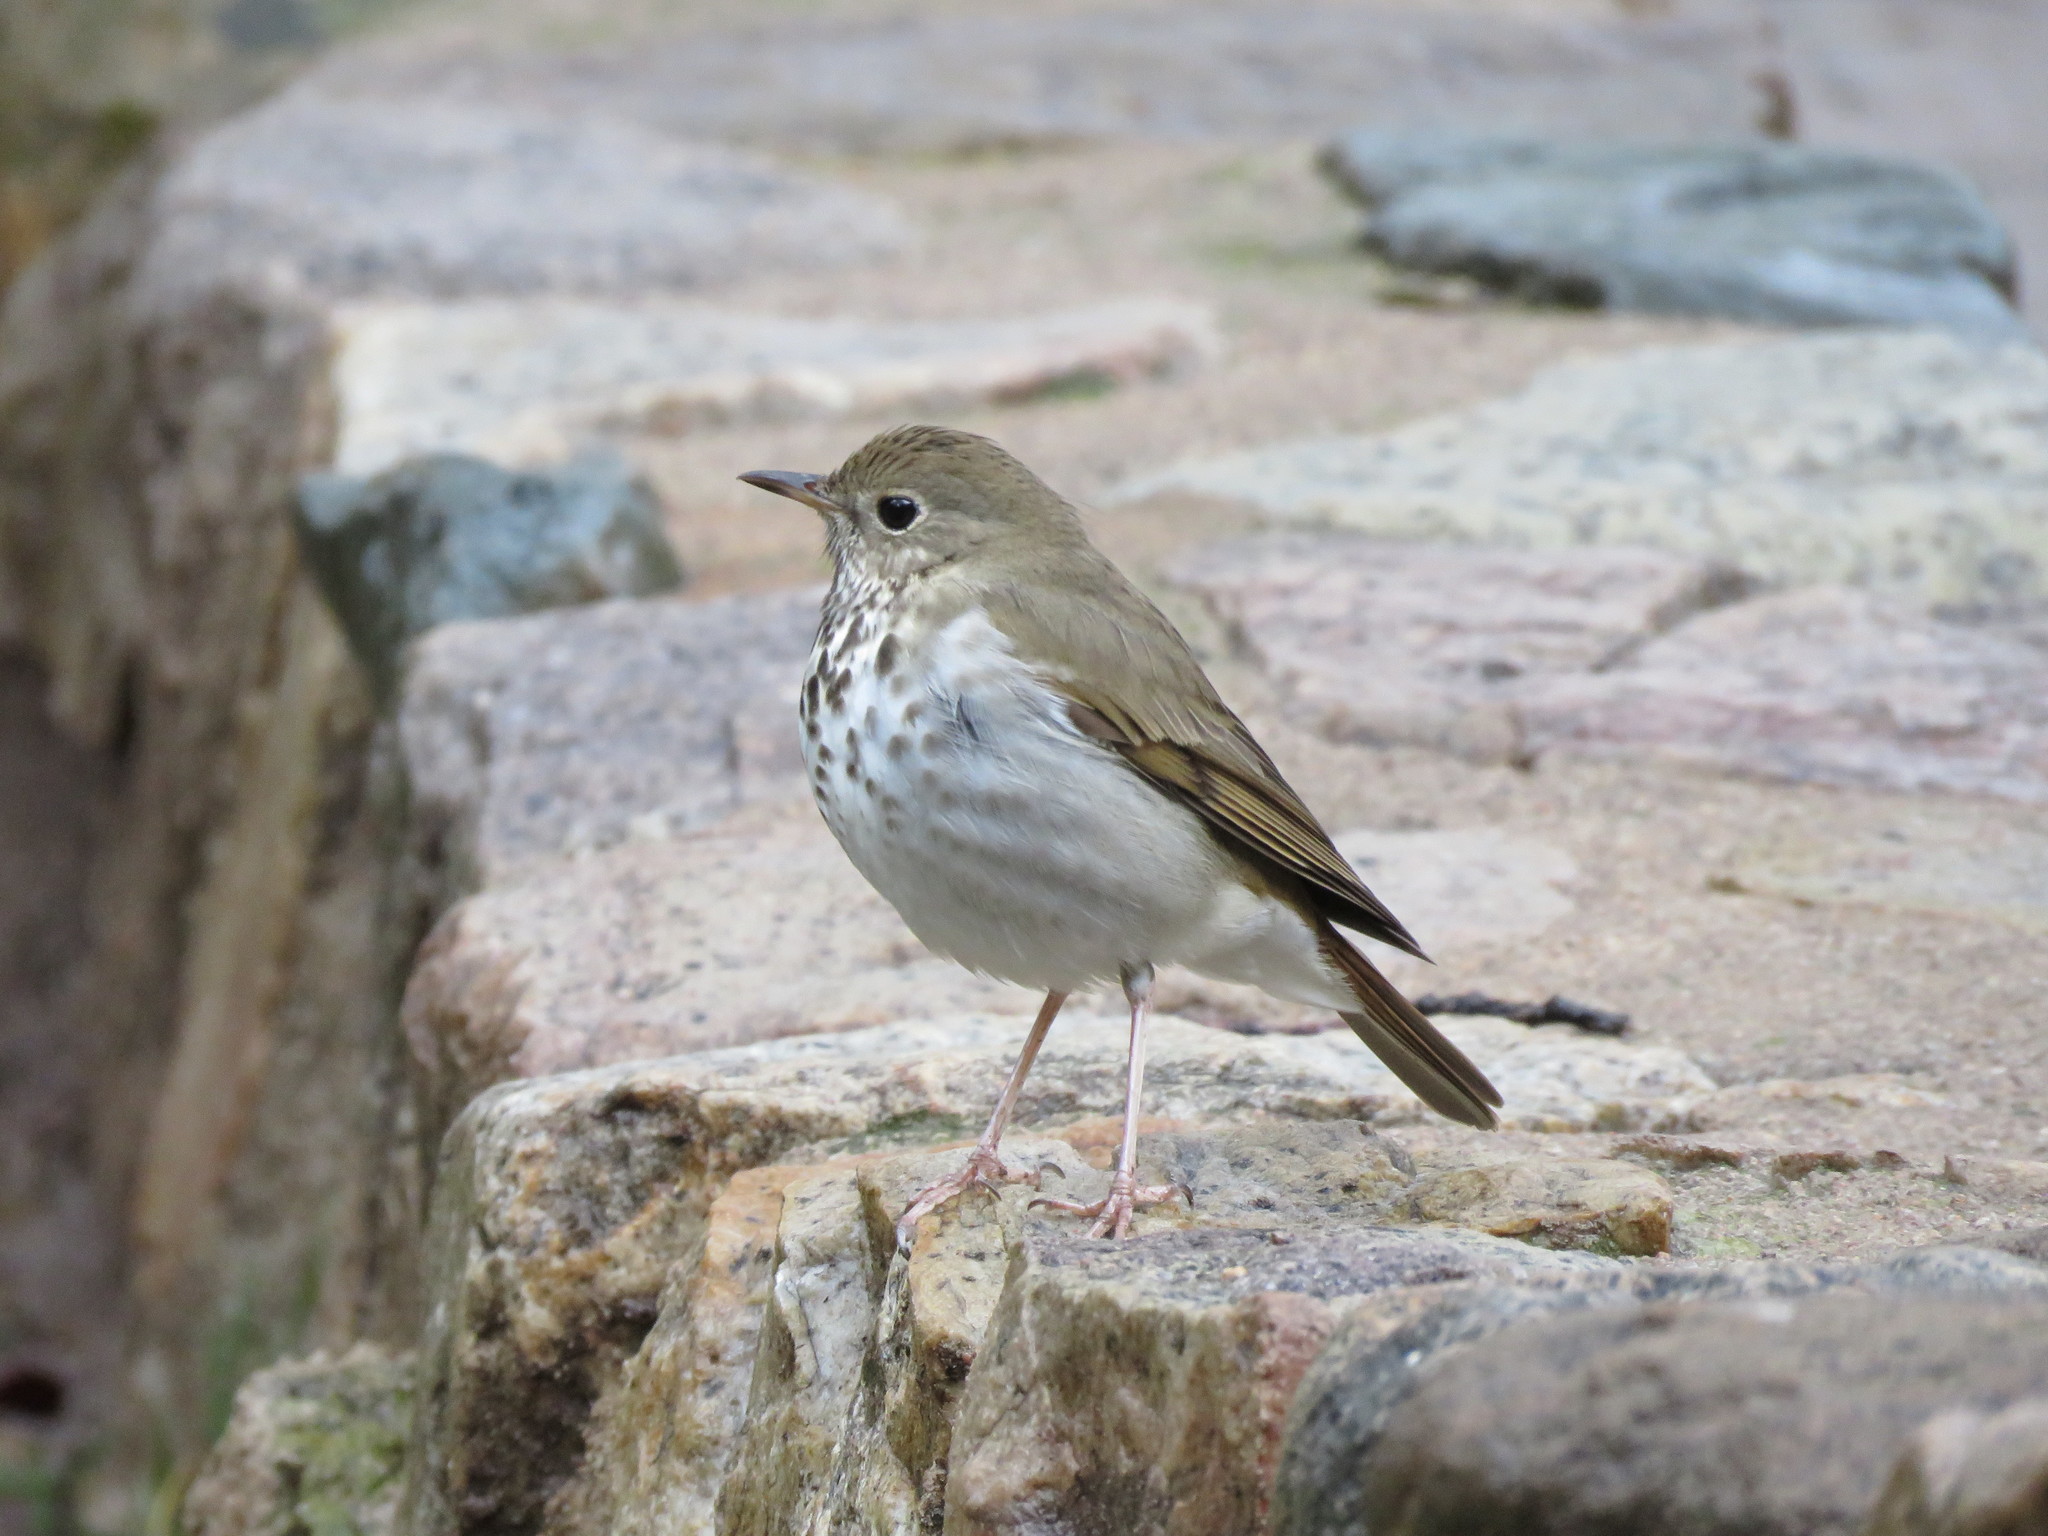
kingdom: Animalia
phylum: Chordata
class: Aves
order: Passeriformes
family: Turdidae
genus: Catharus
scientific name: Catharus guttatus
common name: Hermit thrush
